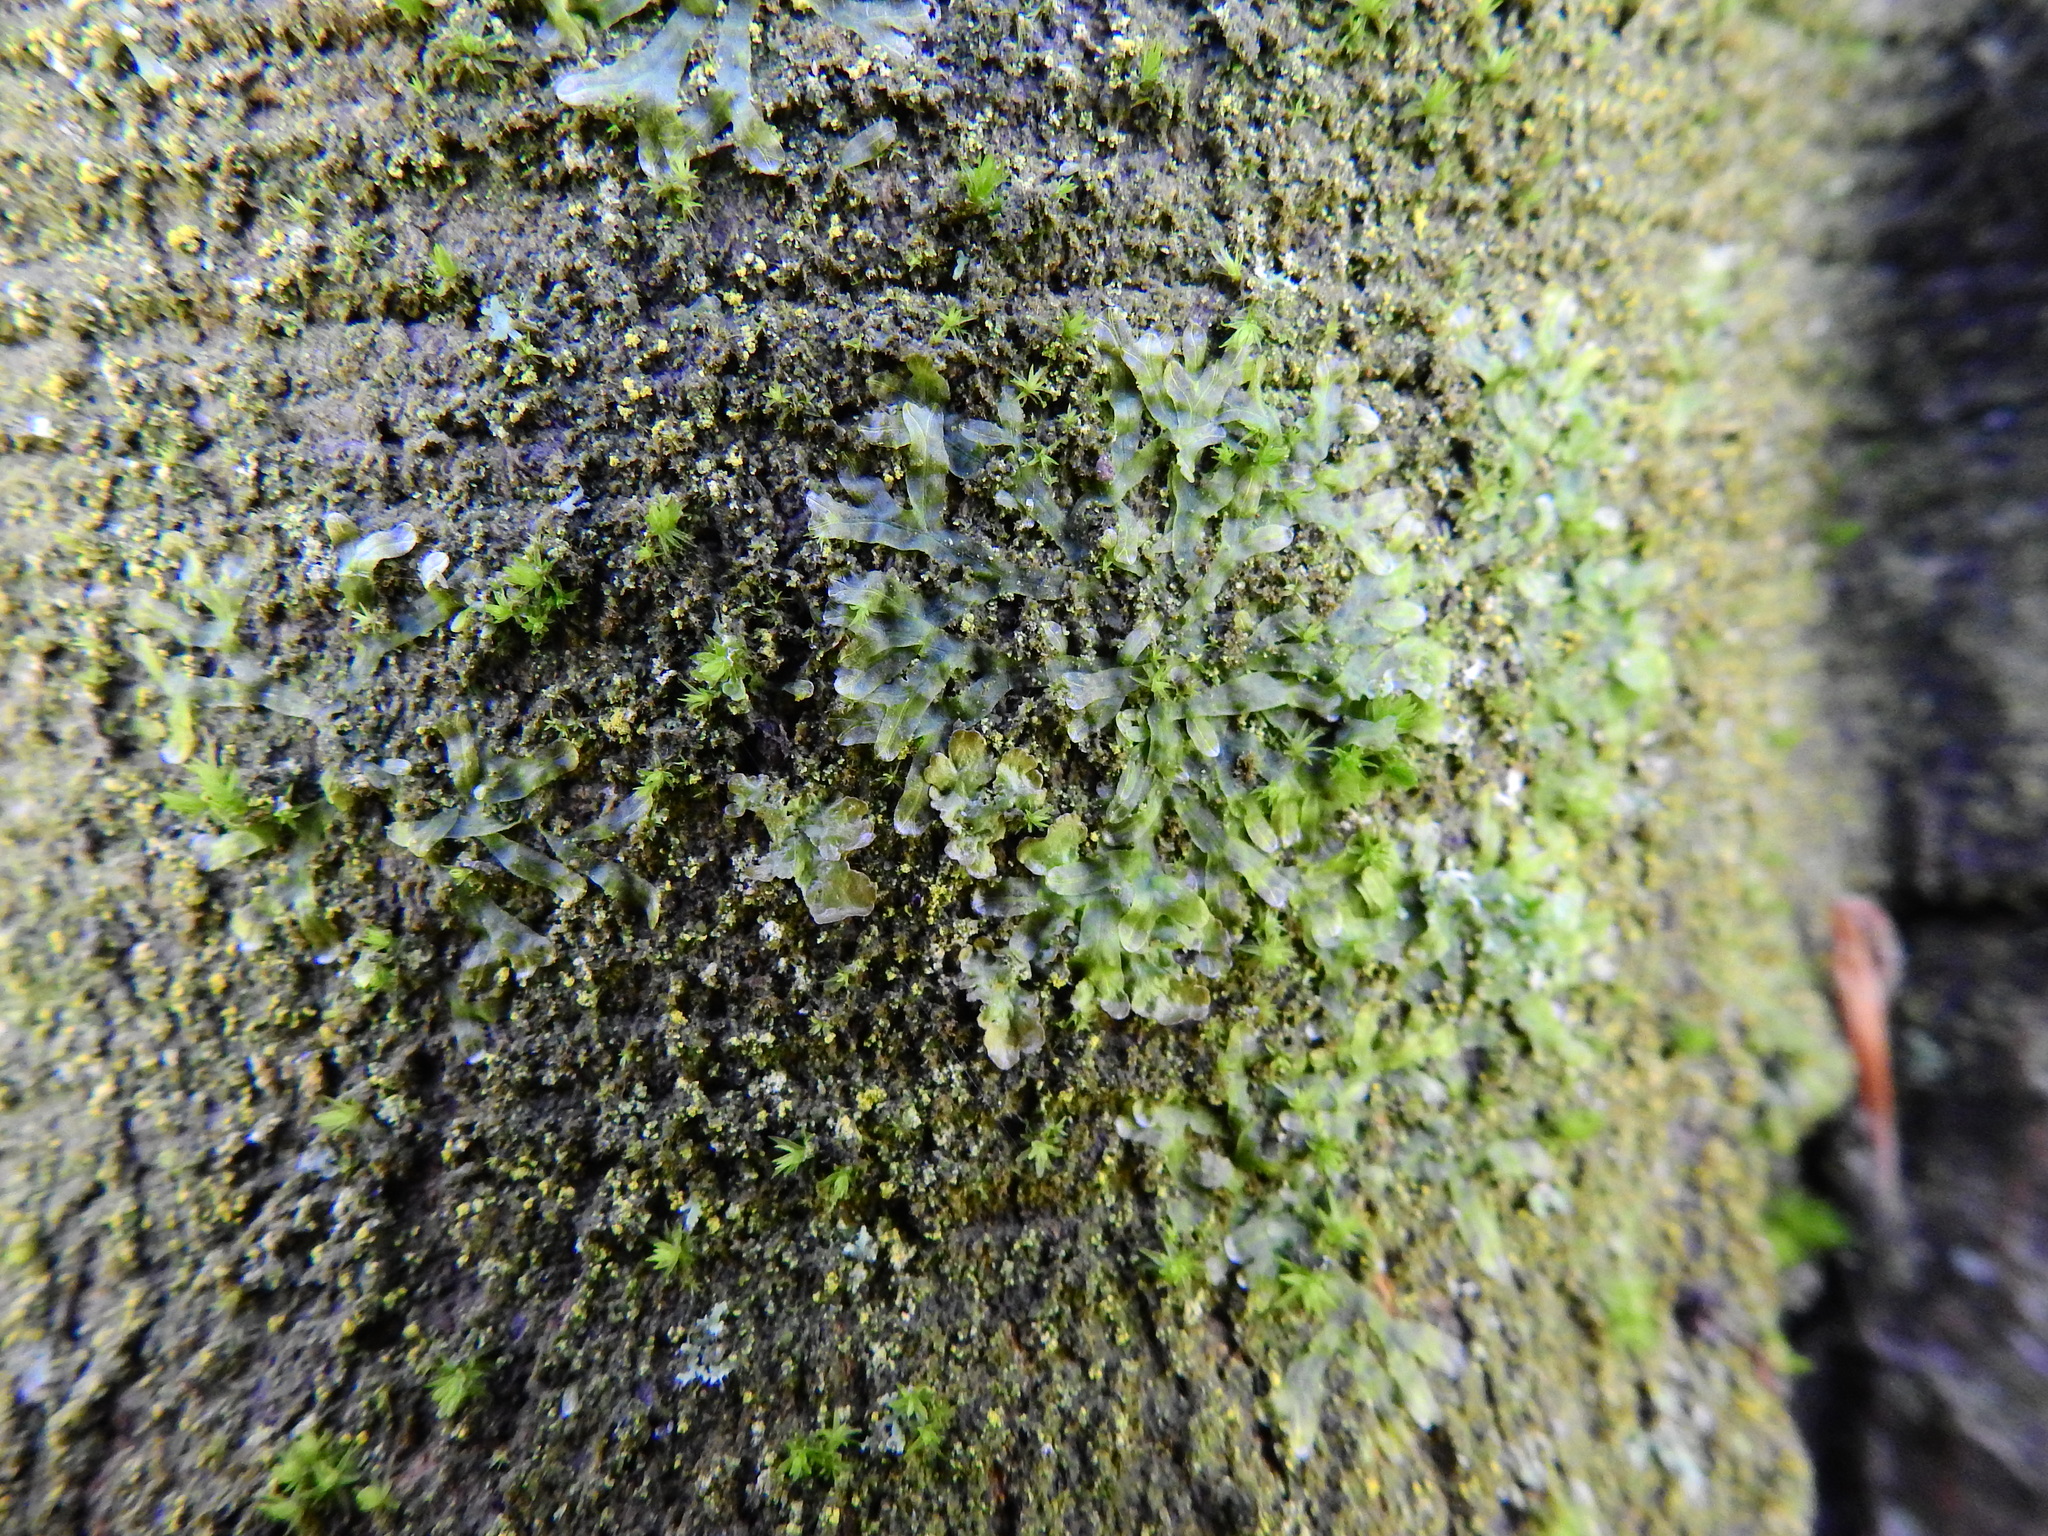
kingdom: Plantae
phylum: Marchantiophyta
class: Jungermanniopsida
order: Metzgeriales
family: Metzgeriaceae
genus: Metzgeria
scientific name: Metzgeria furcata
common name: Forked veilwort
